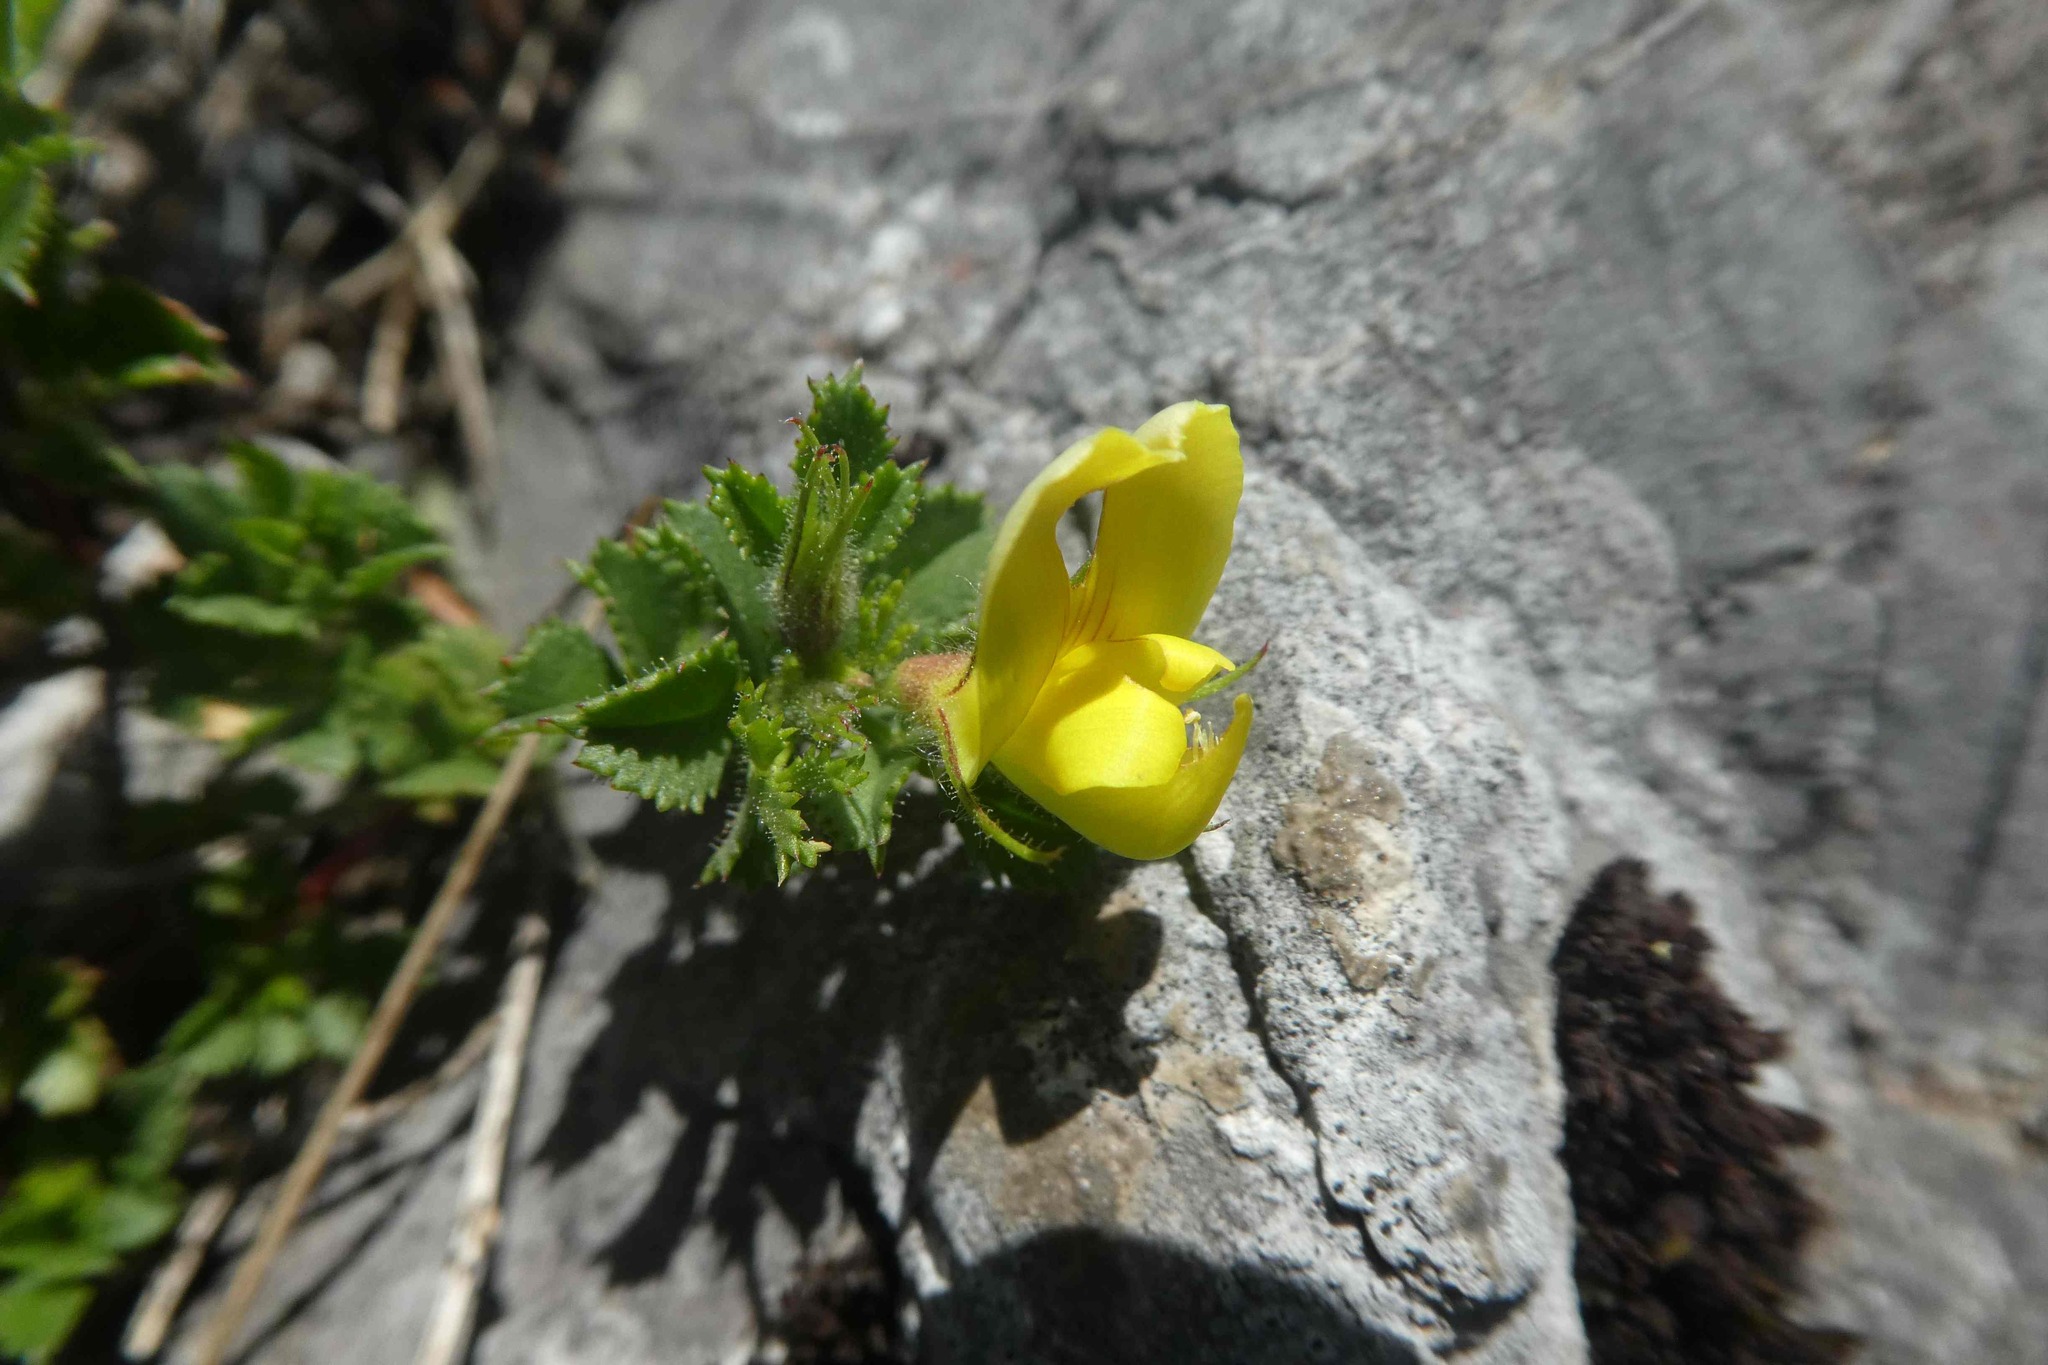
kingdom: Plantae
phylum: Tracheophyta
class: Magnoliopsida
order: Fabales
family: Fabaceae
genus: Ononis
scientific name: Ononis striata
